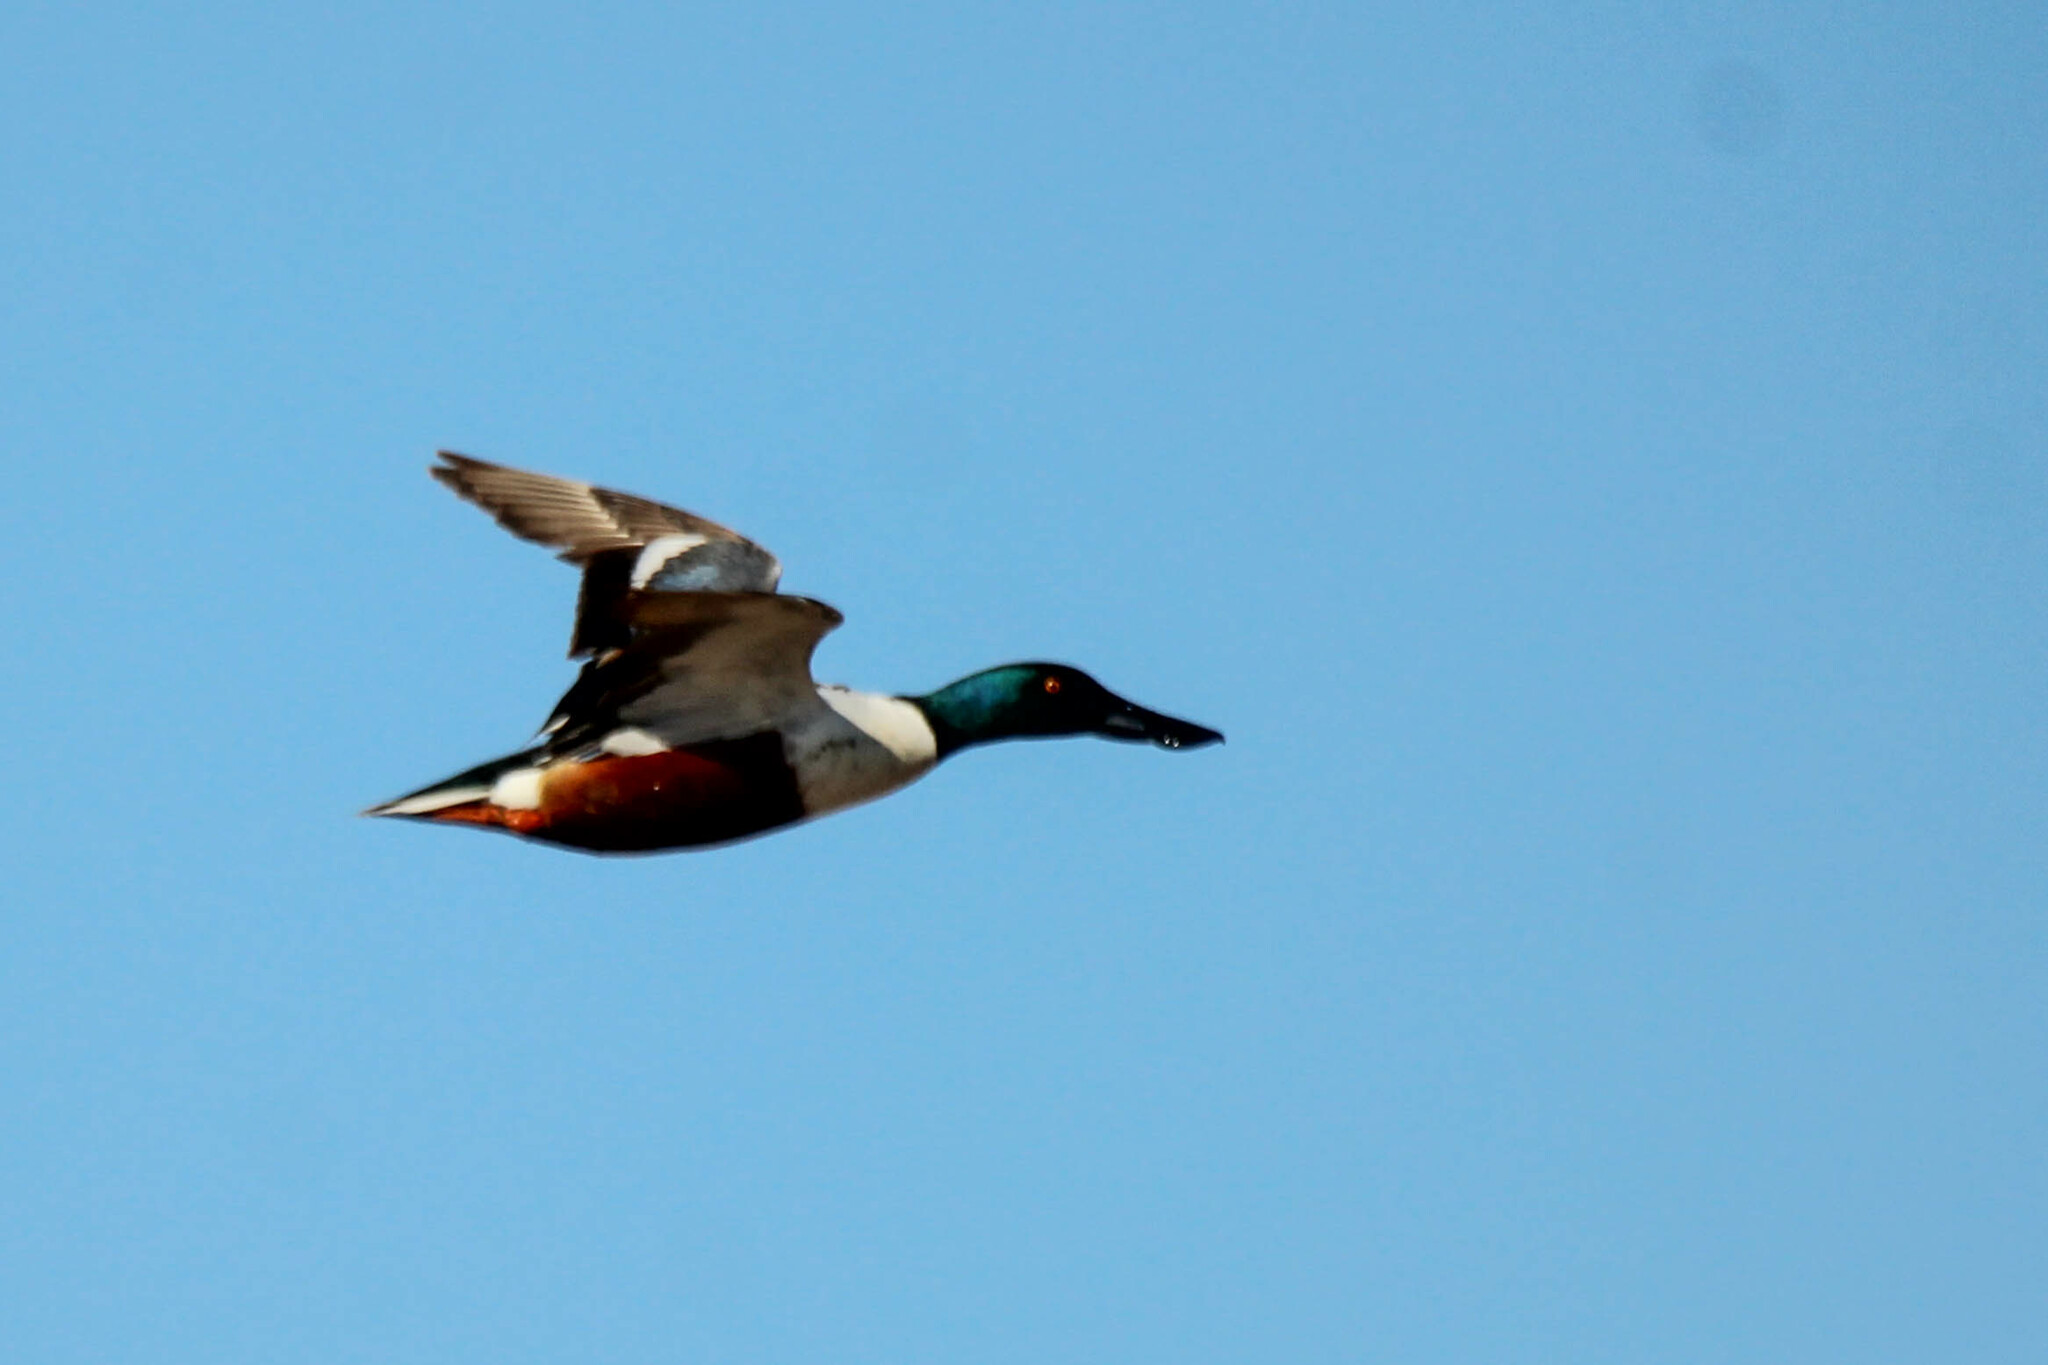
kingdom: Animalia
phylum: Chordata
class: Aves
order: Anseriformes
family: Anatidae
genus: Spatula
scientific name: Spatula clypeata
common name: Northern shoveler
